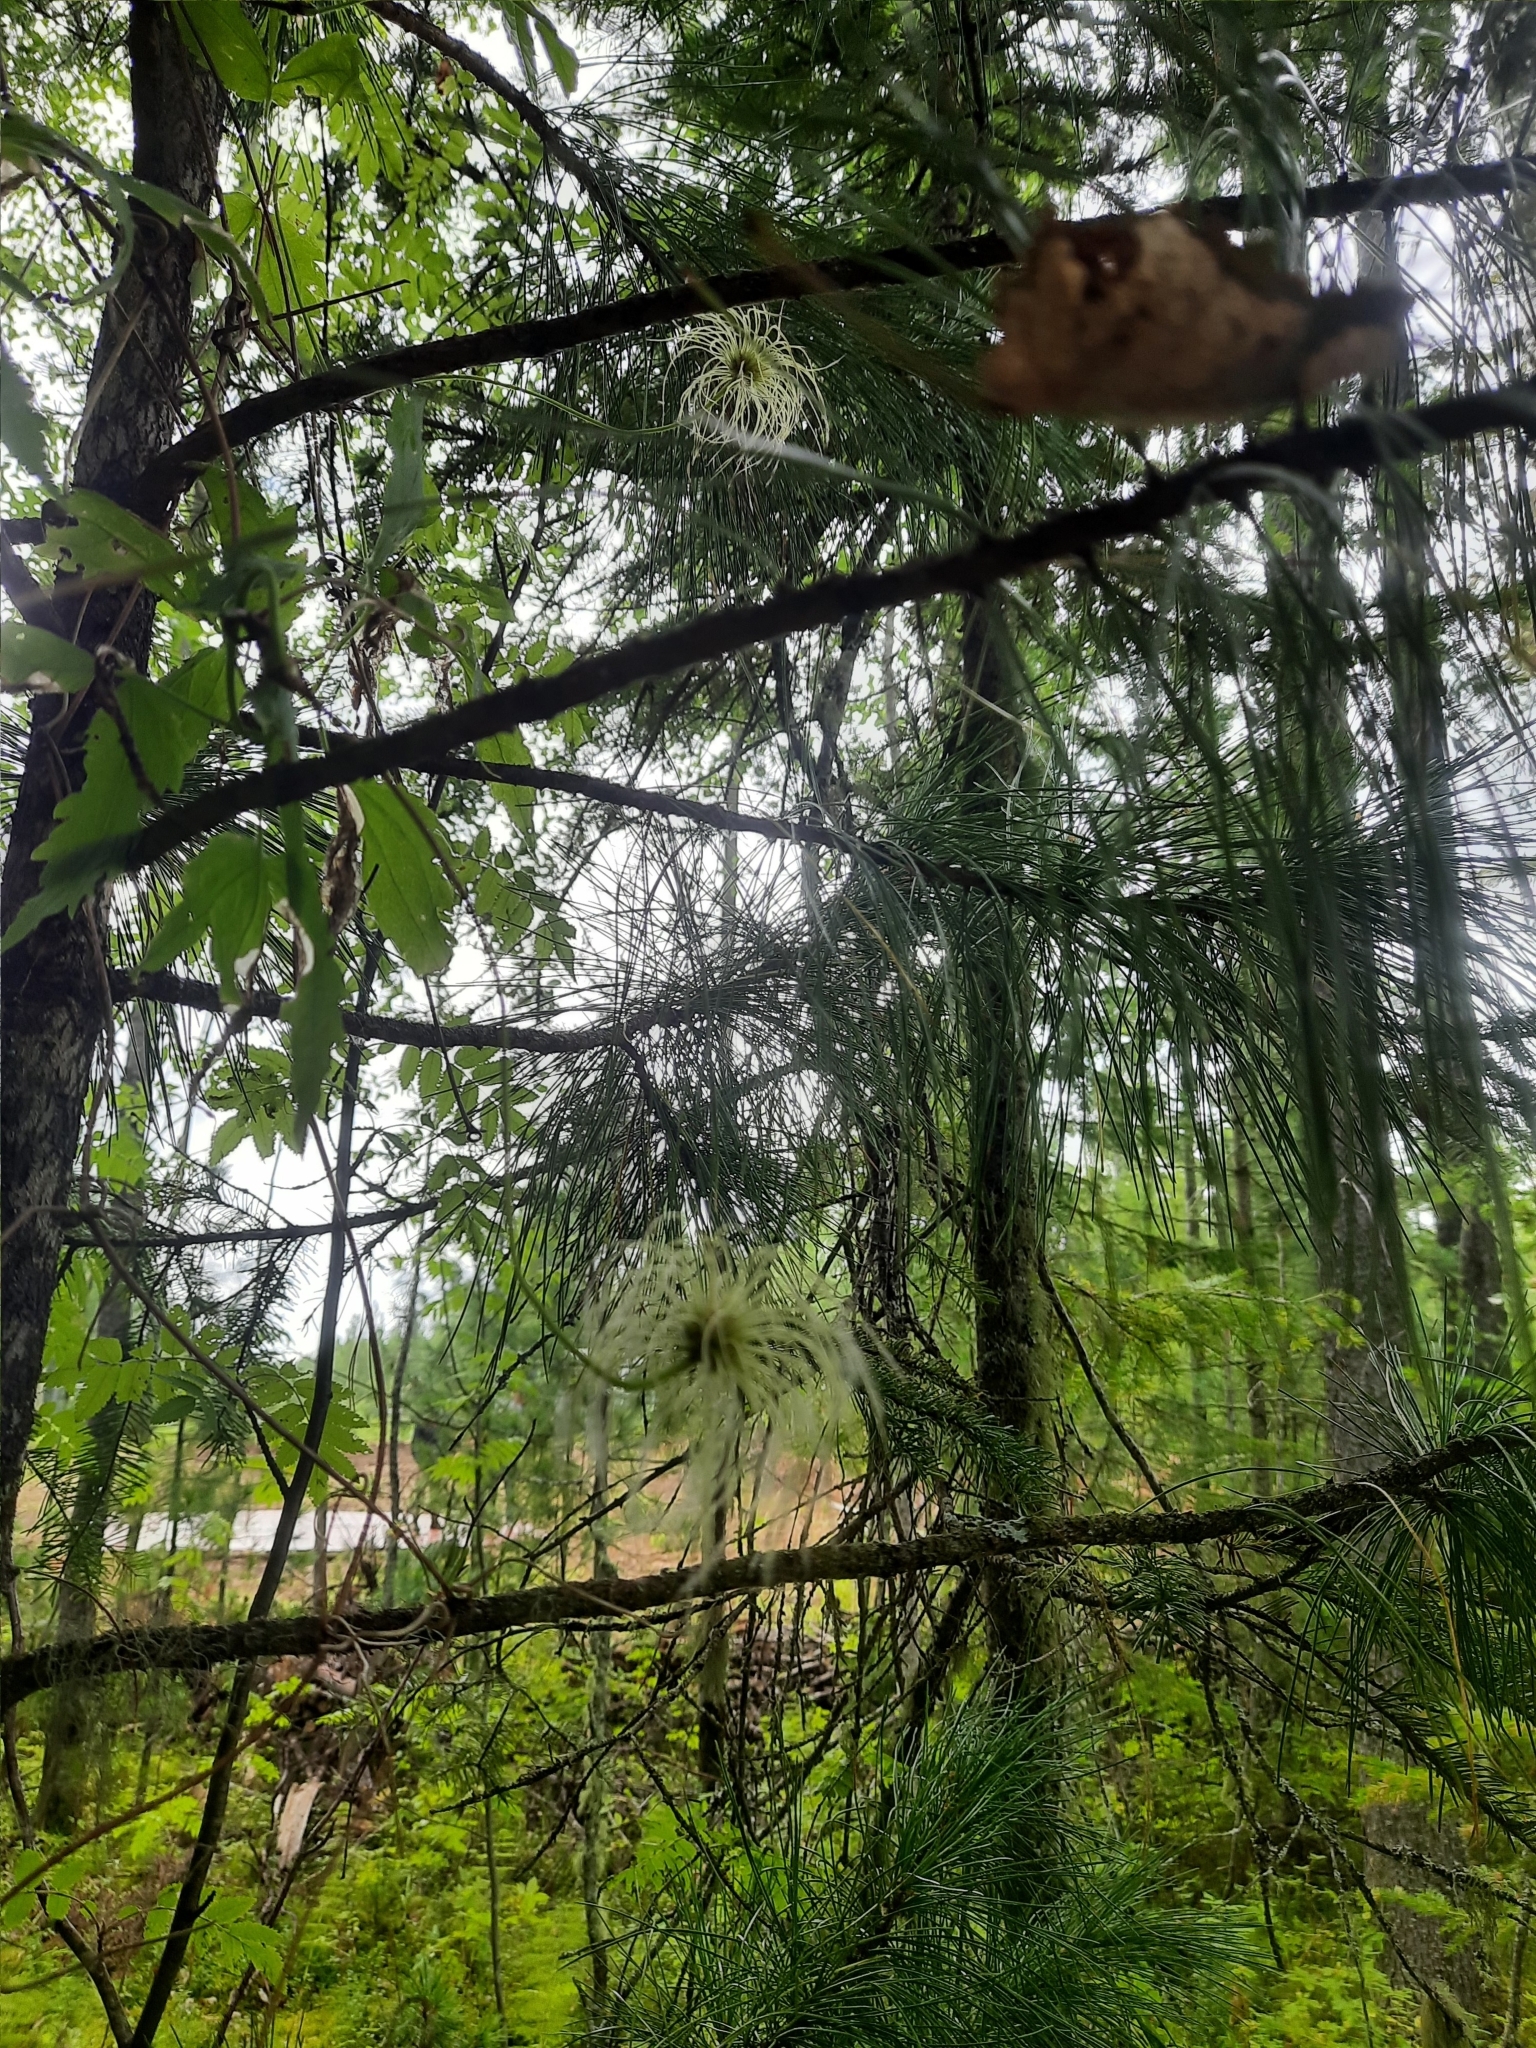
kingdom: Plantae
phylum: Tracheophyta
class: Magnoliopsida
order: Ranunculales
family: Ranunculaceae
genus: Clematis
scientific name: Clematis sibirica
